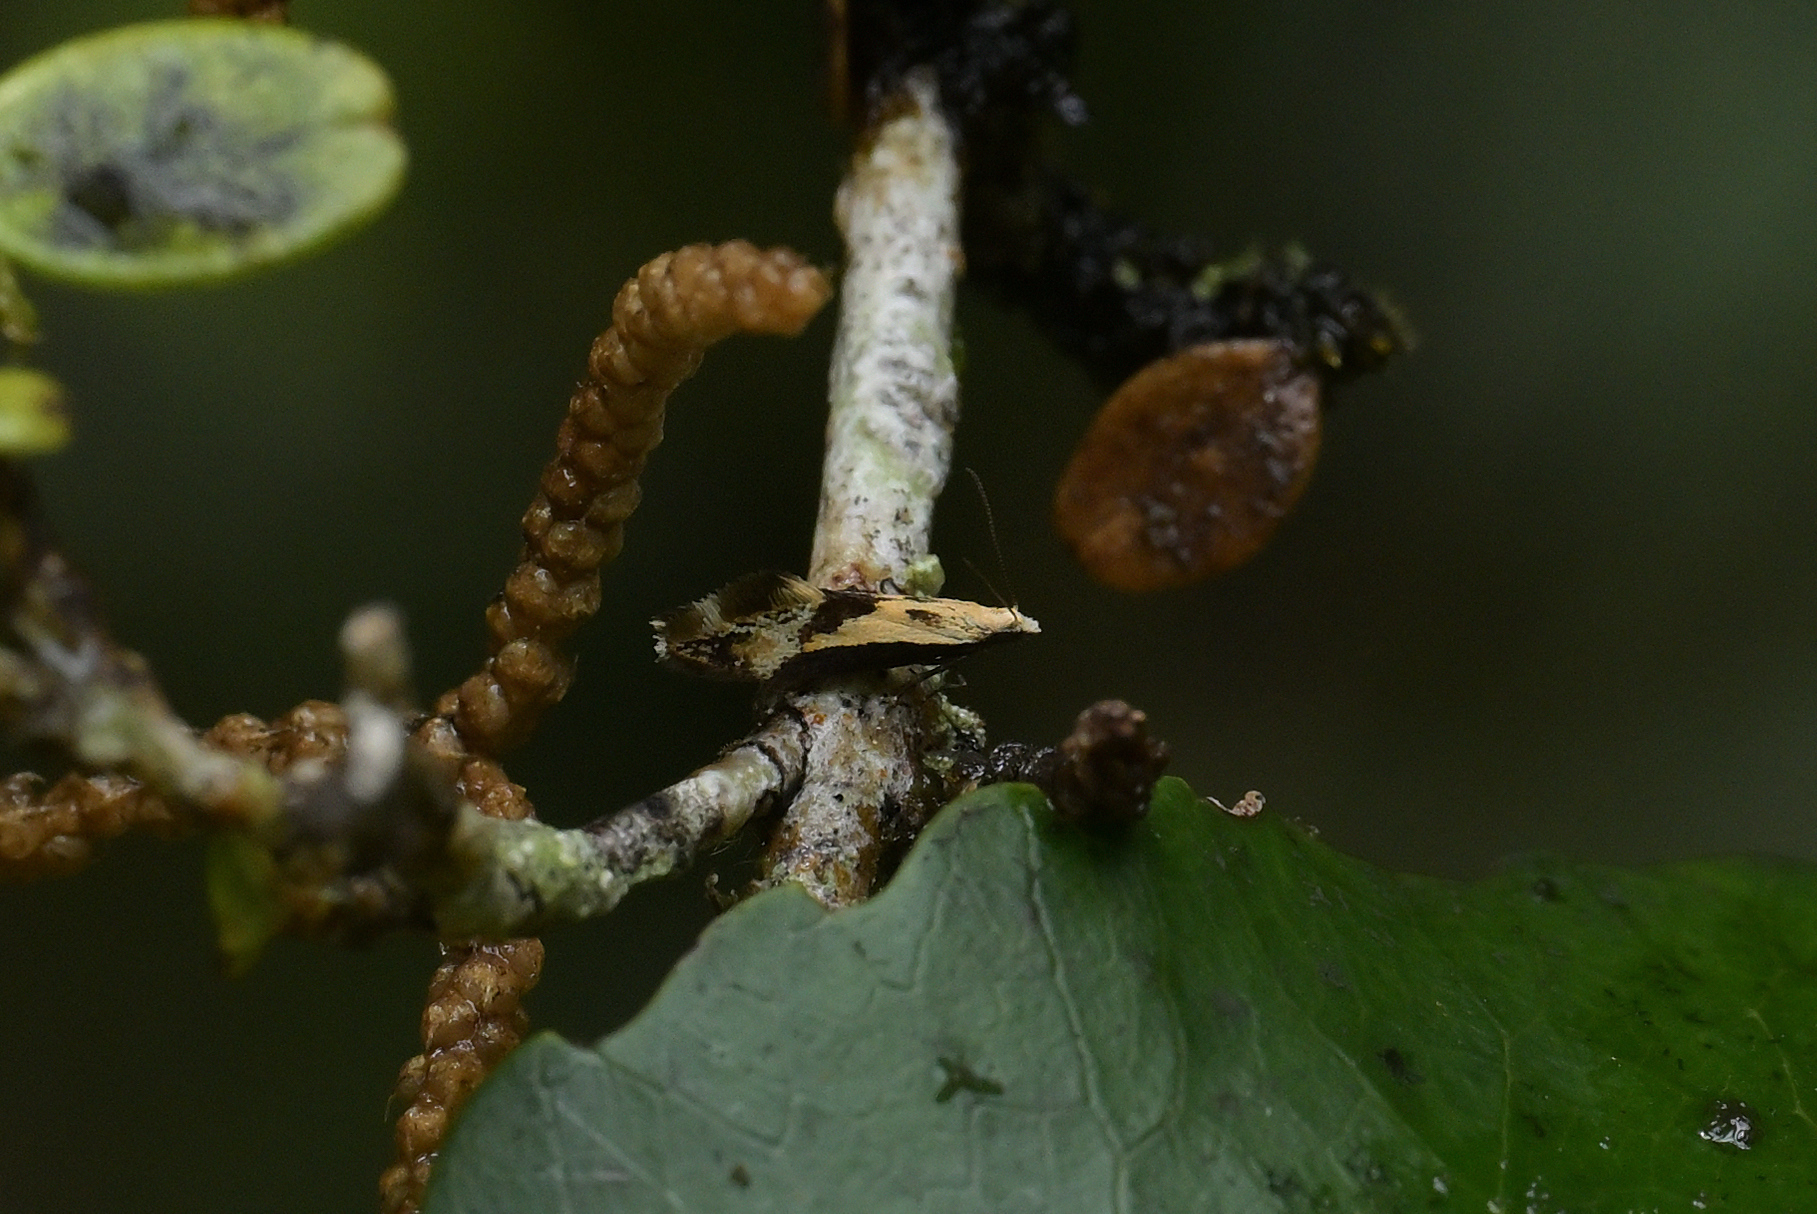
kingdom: Animalia
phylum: Arthropoda
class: Insecta
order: Lepidoptera
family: Mnesarchaeidae
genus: Mnesarchella
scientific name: Mnesarchella loxoscia
